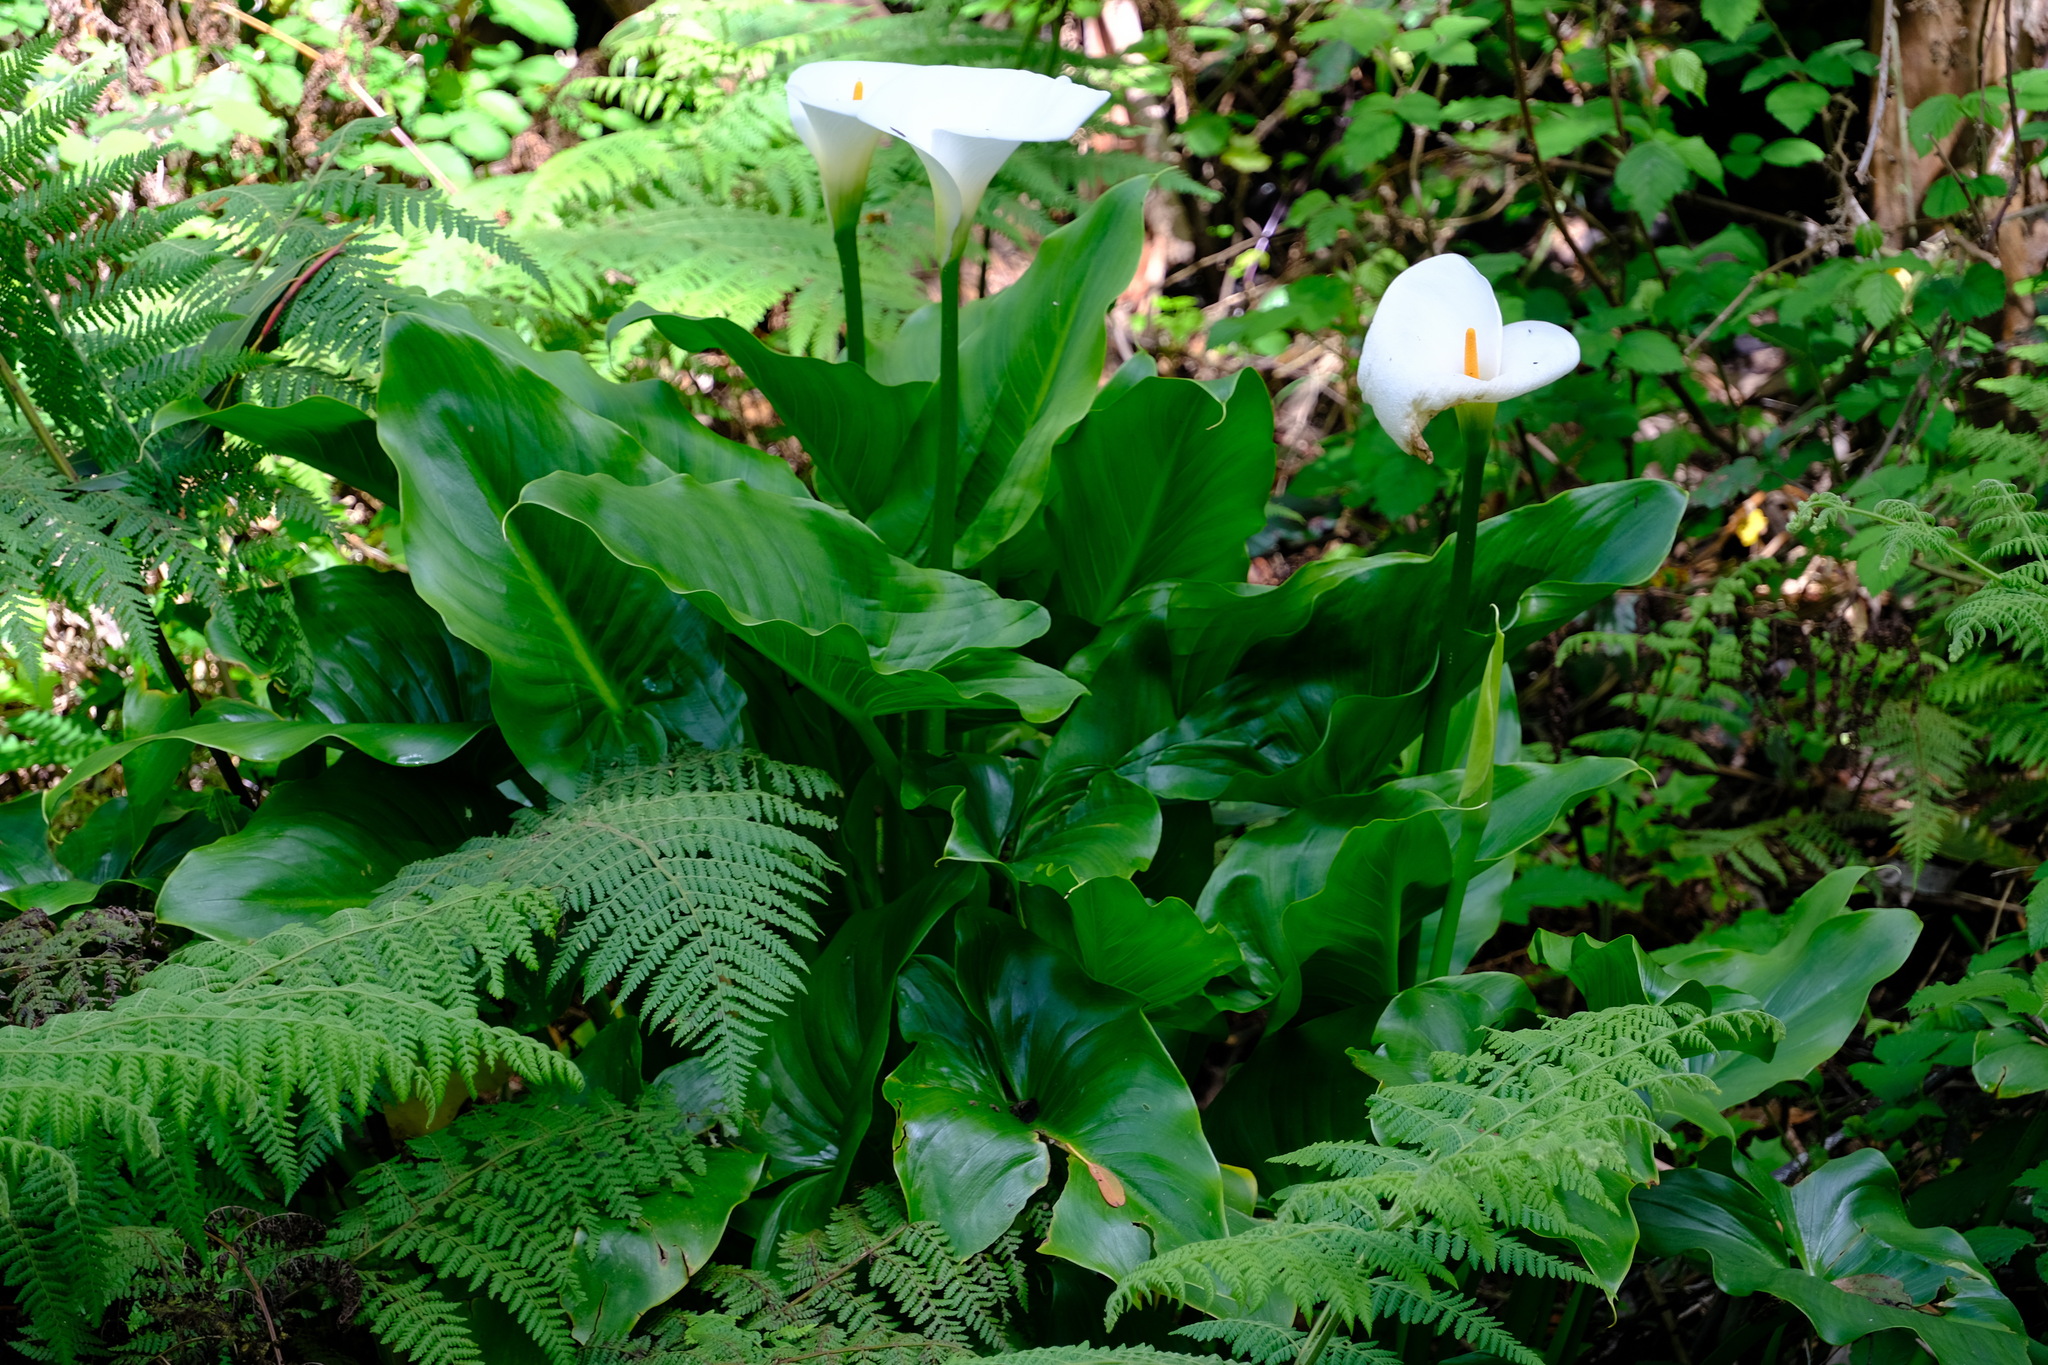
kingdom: Plantae
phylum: Tracheophyta
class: Liliopsida
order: Alismatales
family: Araceae
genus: Zantedeschia
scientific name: Zantedeschia aethiopica
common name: Altar-lily
